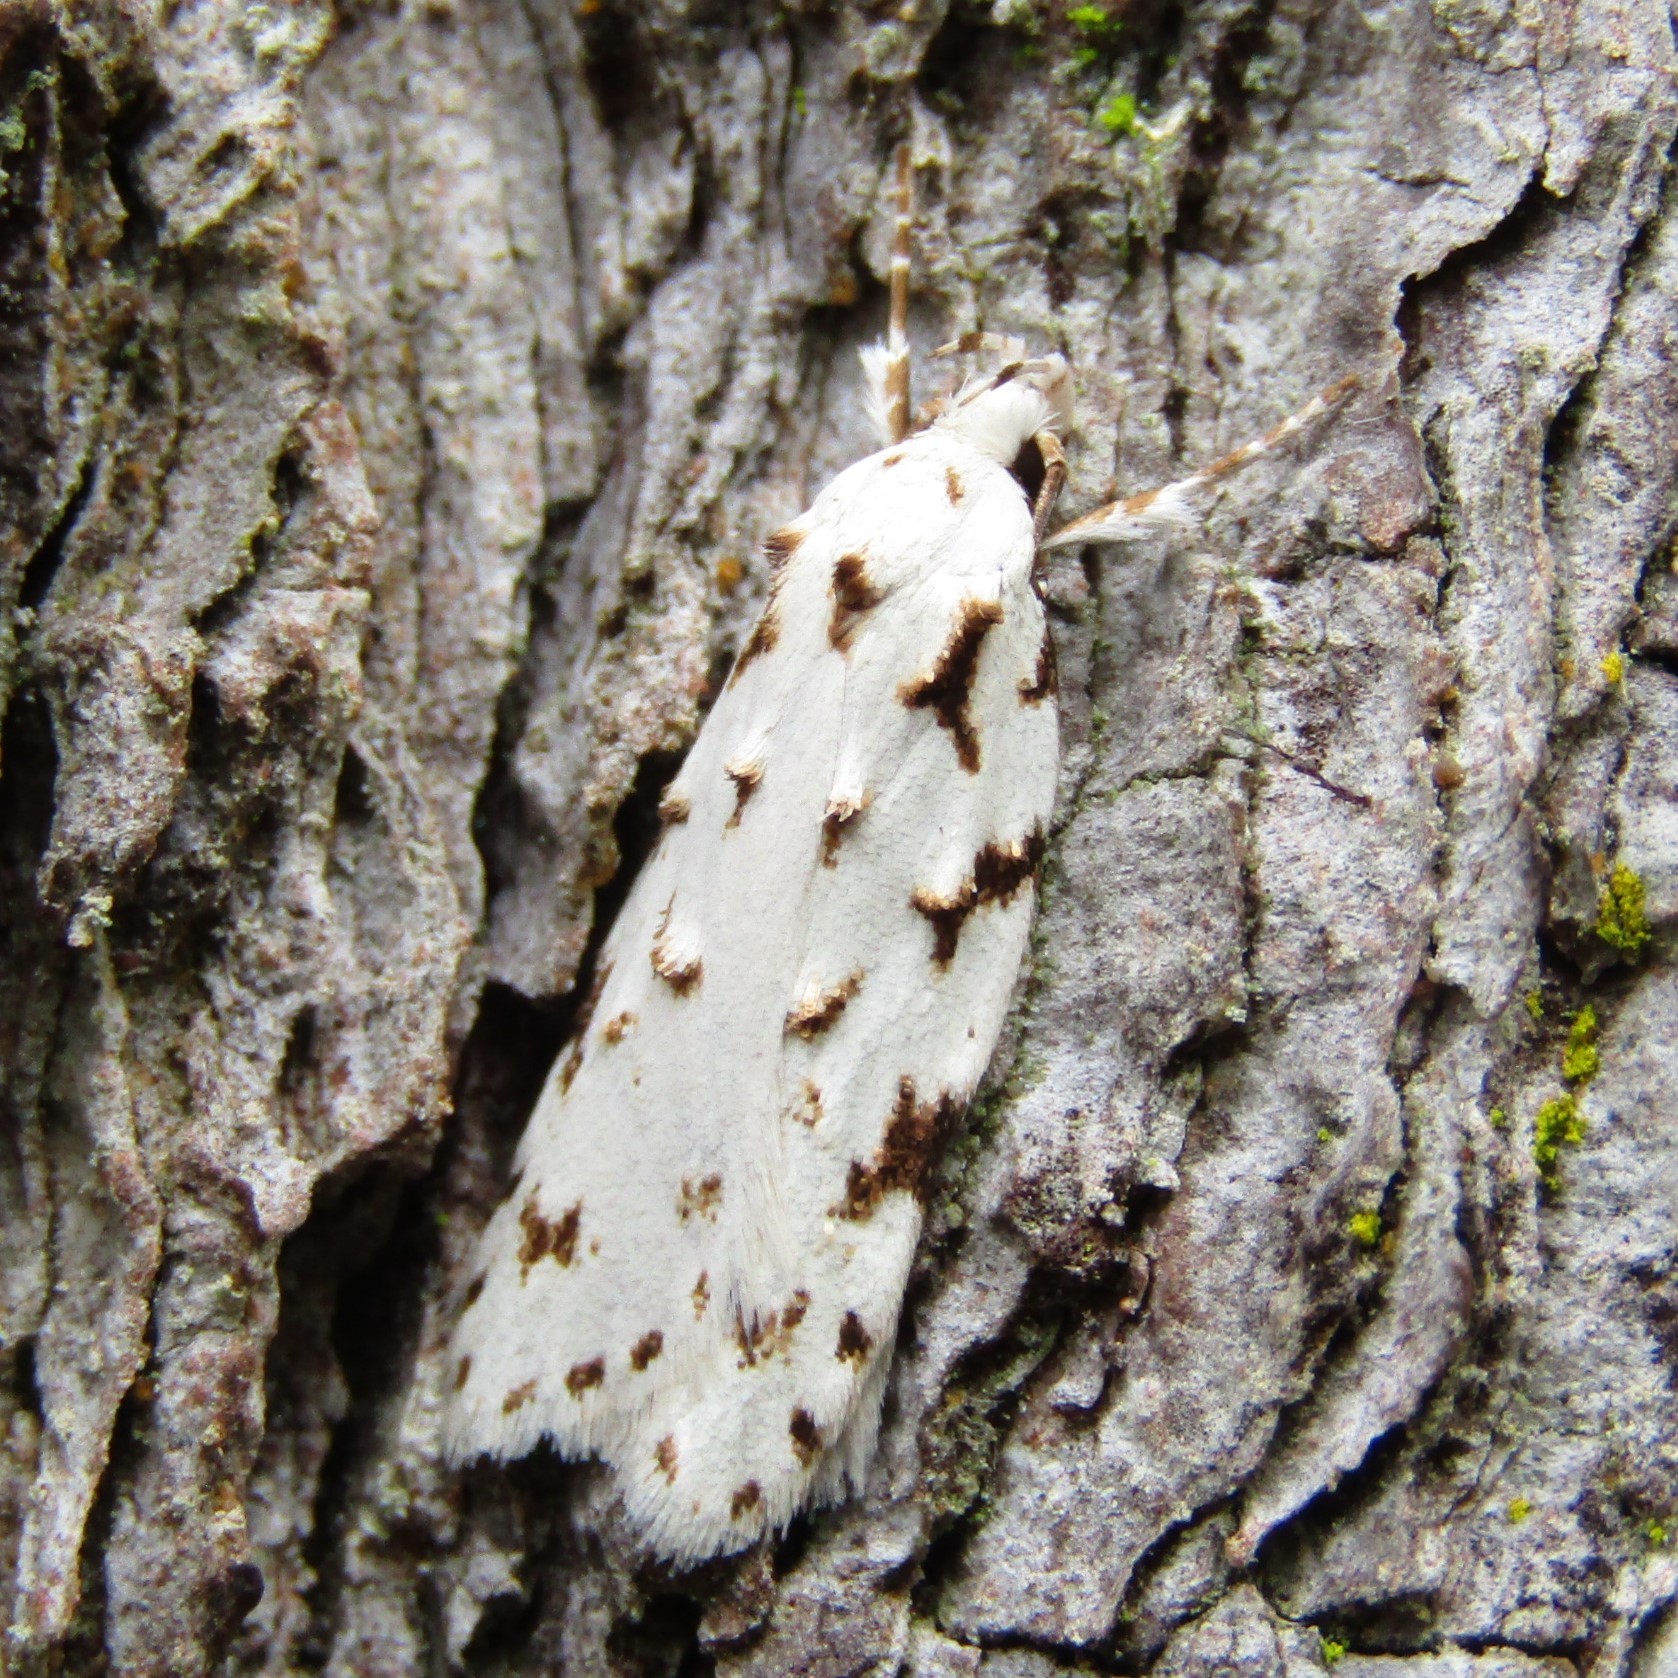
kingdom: Animalia
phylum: Arthropoda
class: Insecta
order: Lepidoptera
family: Oecophoridae
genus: Izatha
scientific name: Izatha hudsoni
